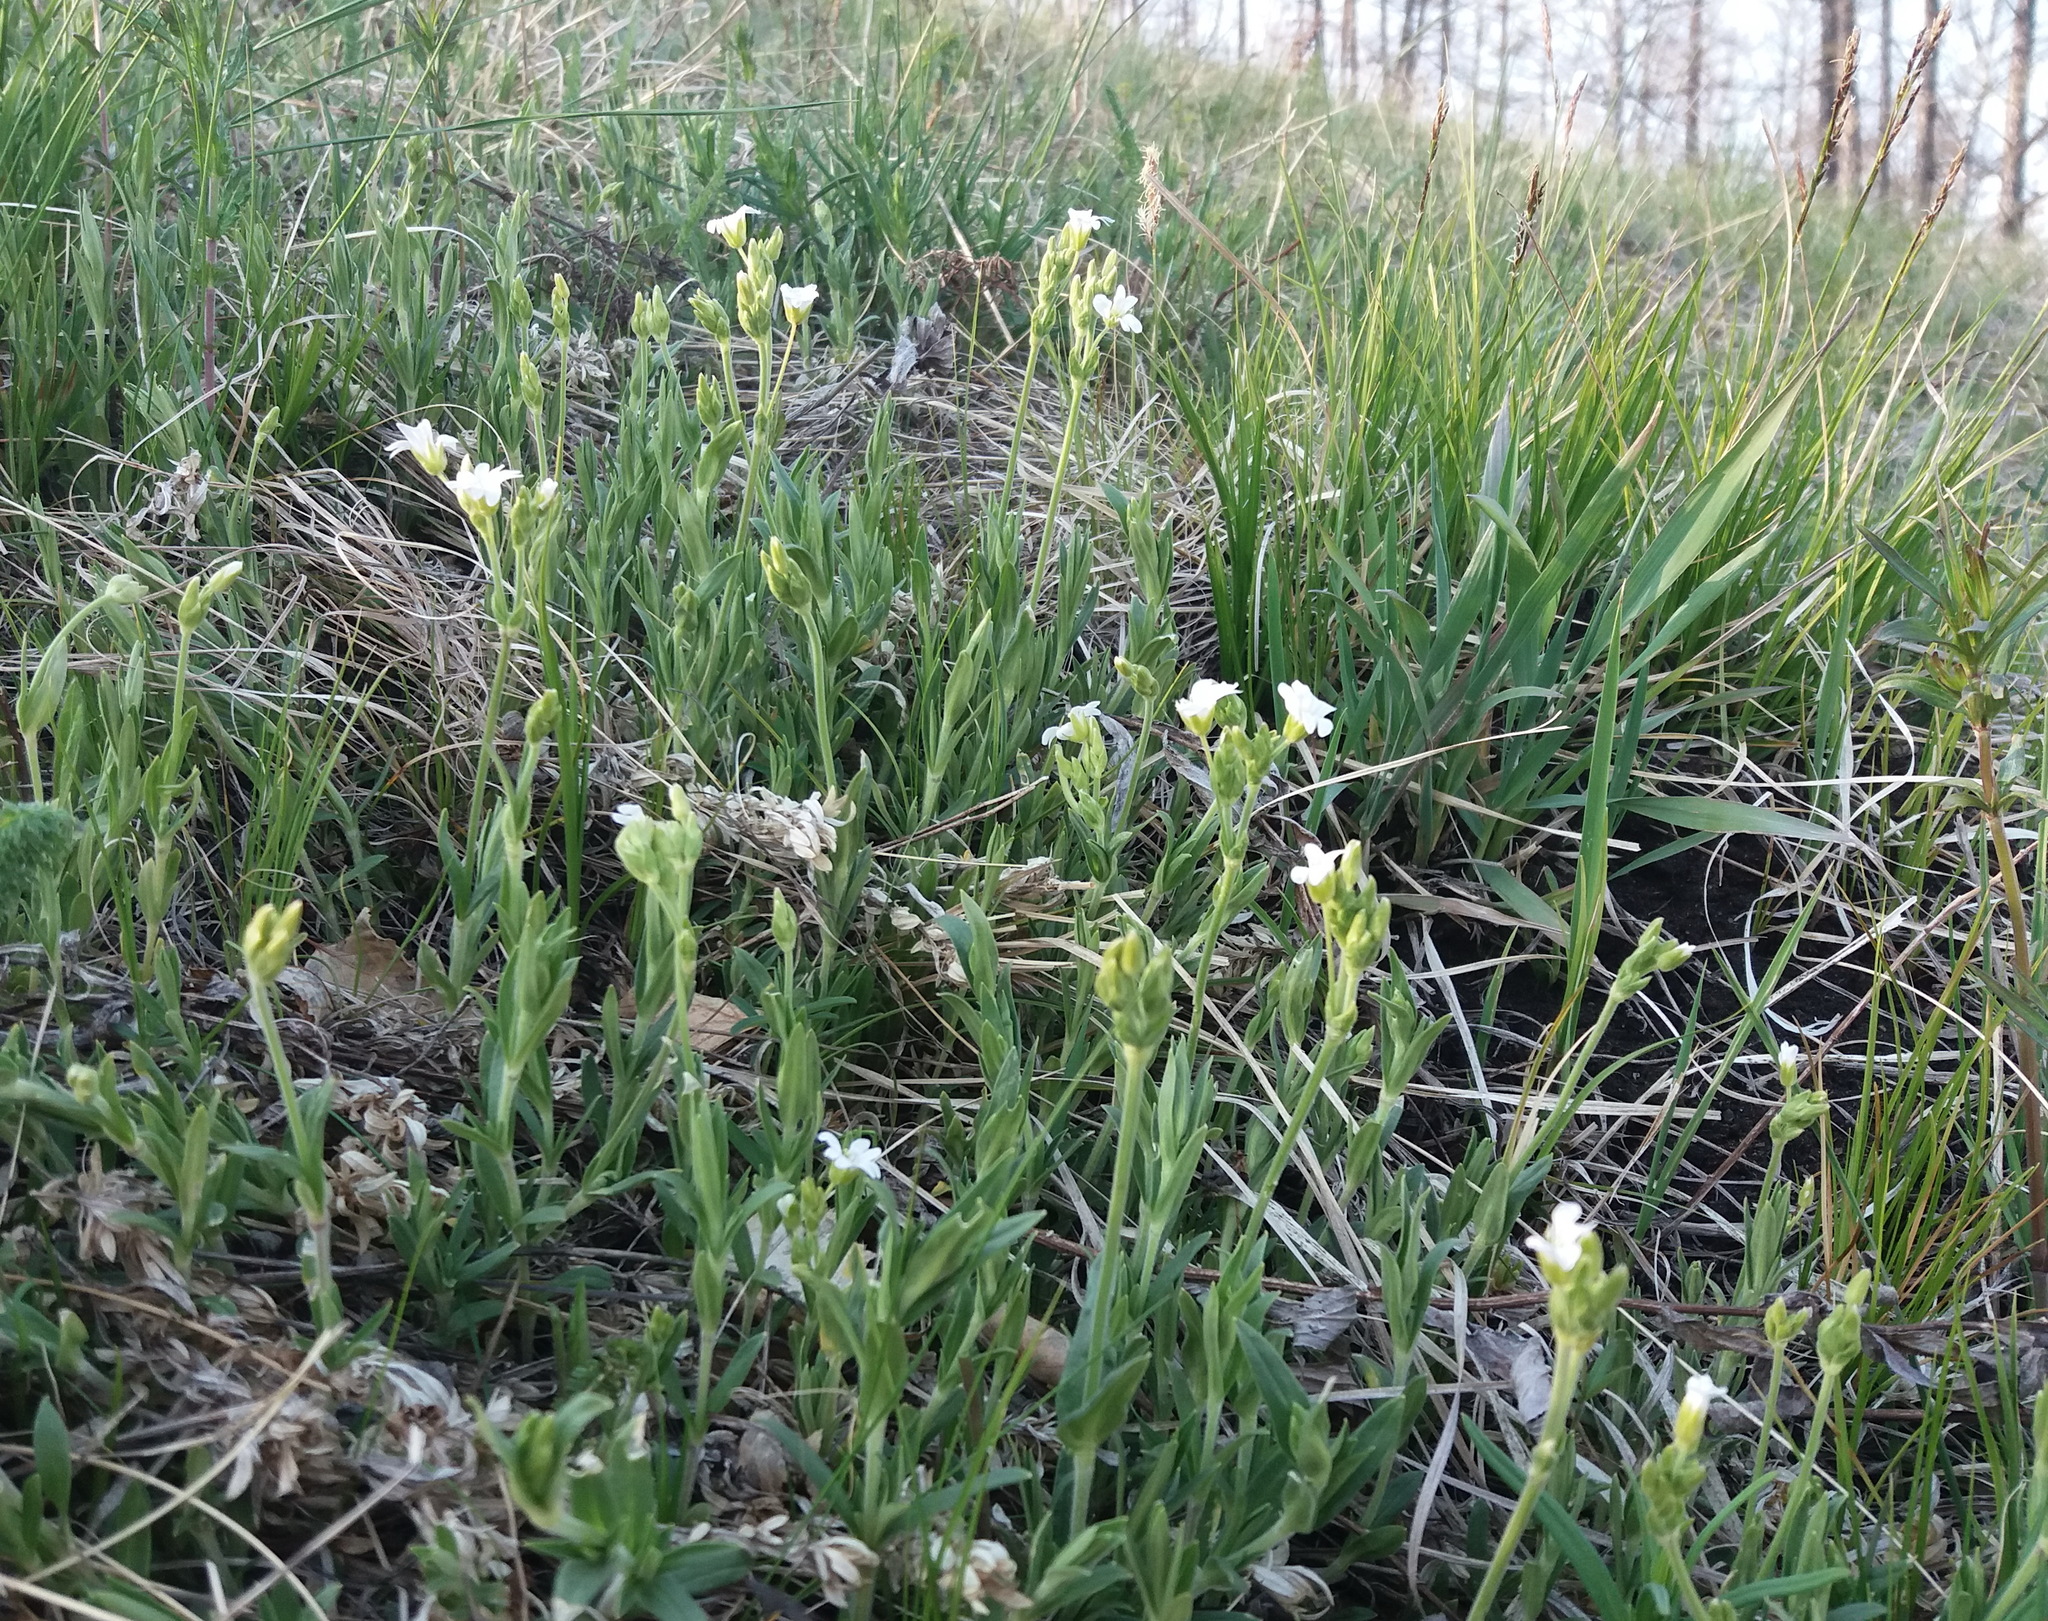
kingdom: Plantae
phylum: Tracheophyta
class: Magnoliopsida
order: Caryophyllales
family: Caryophyllaceae
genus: Cerastium
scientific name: Cerastium arvense
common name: Field mouse-ear
